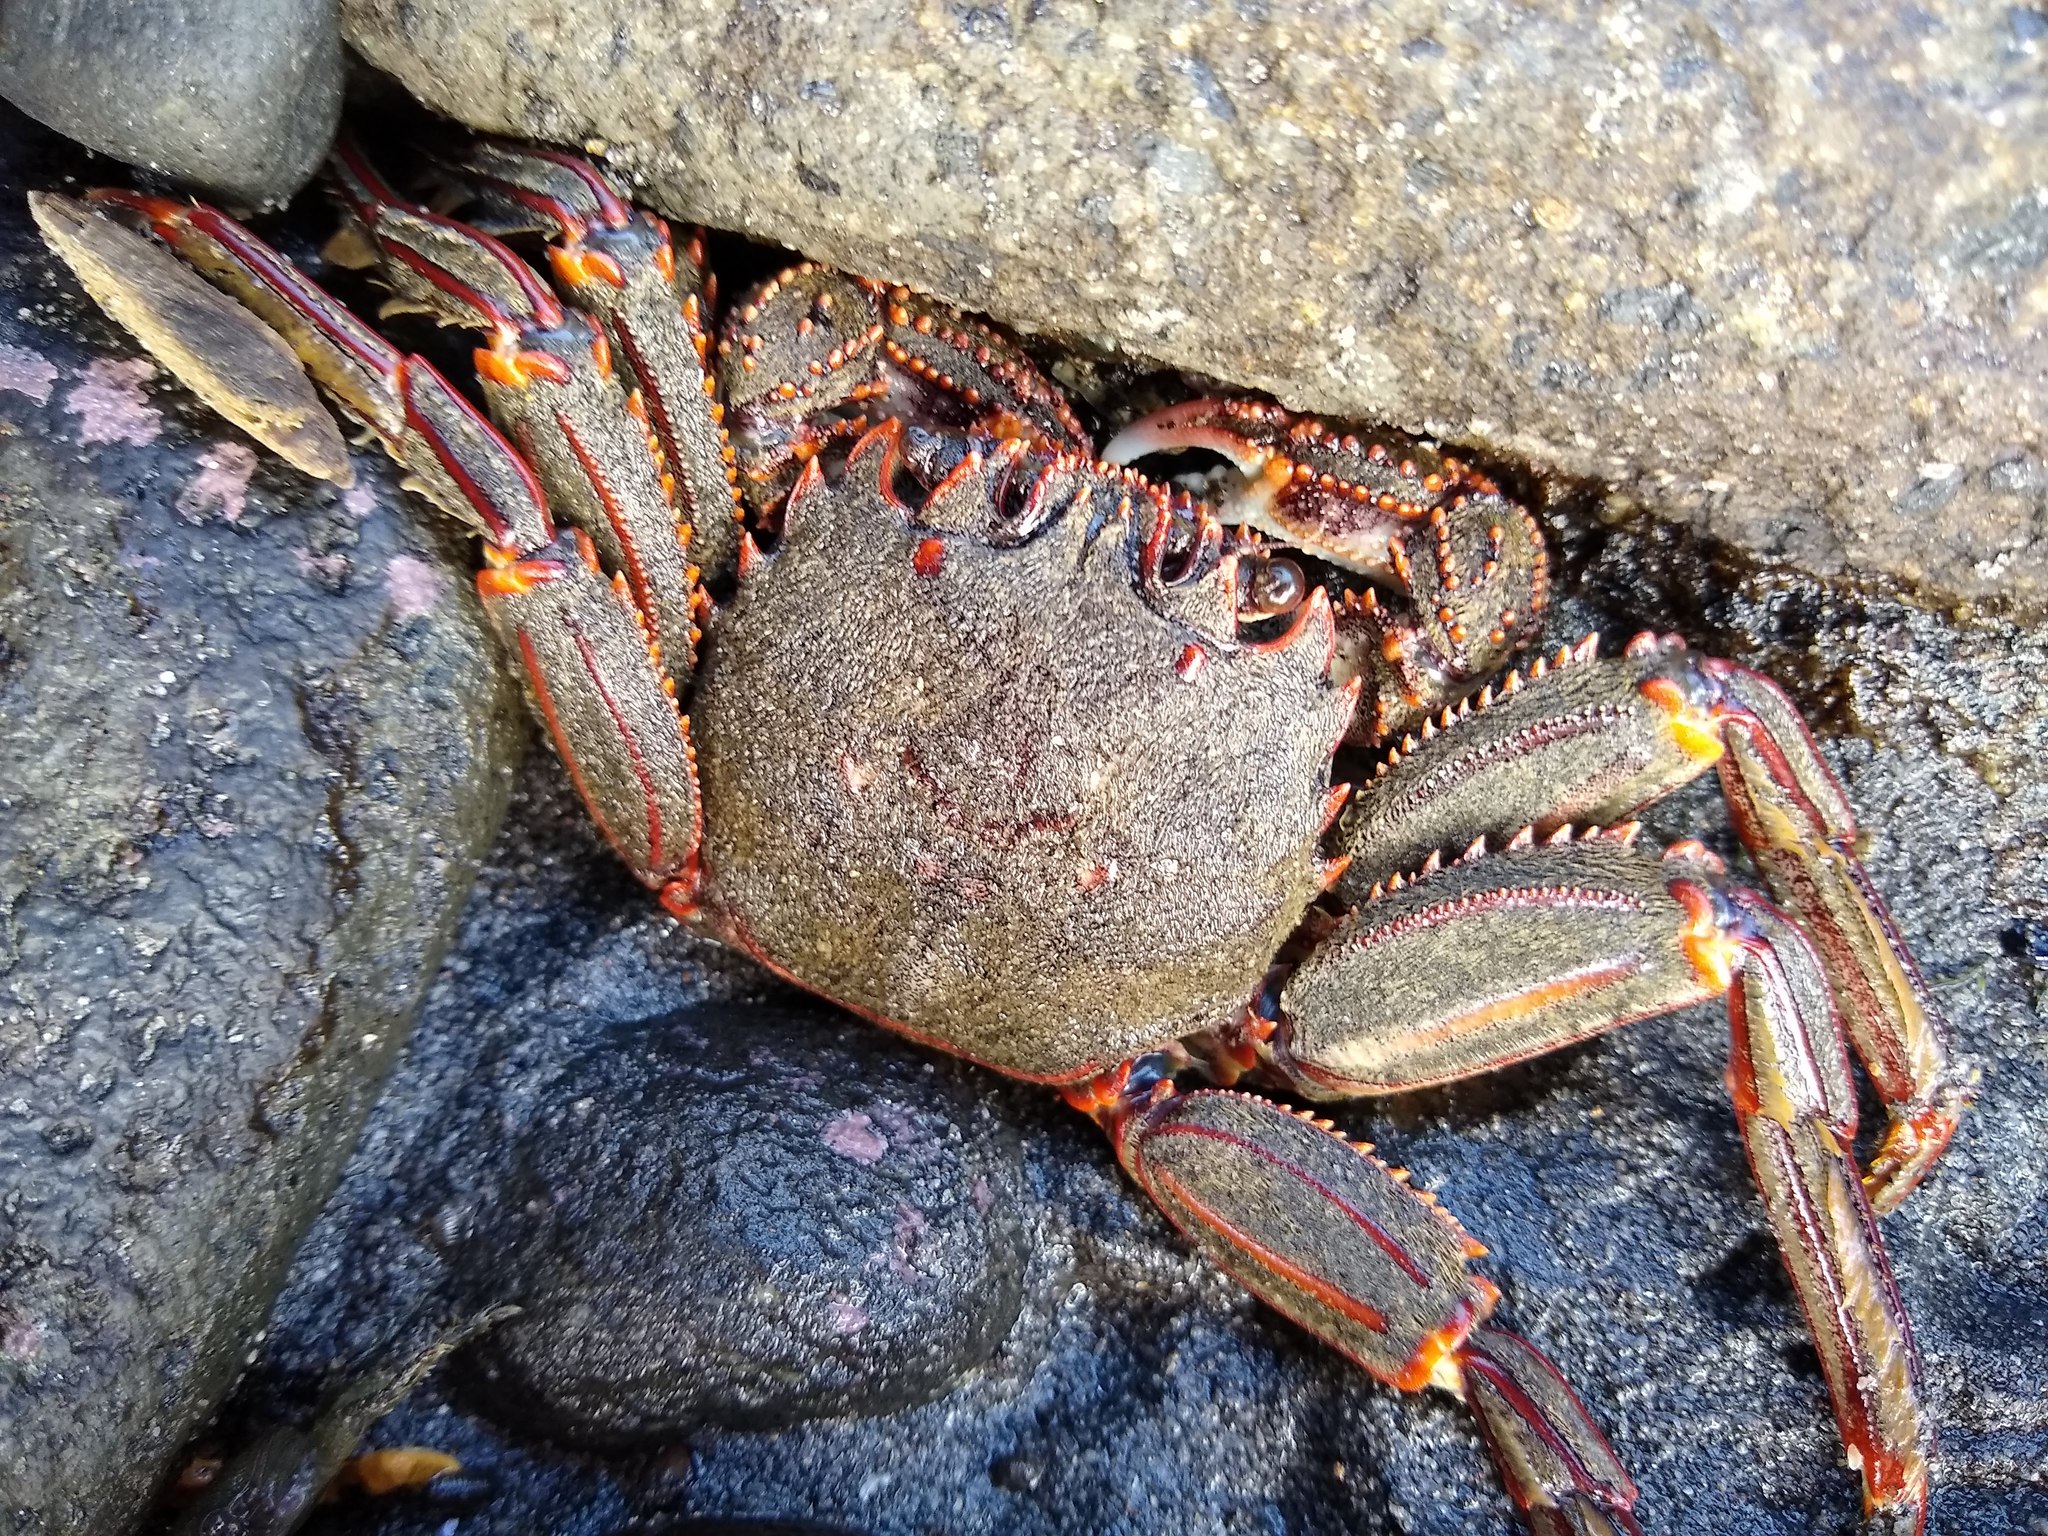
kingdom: Animalia
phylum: Arthropoda
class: Malacostraca
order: Decapoda
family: Plagusiidae
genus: Guinusia
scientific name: Guinusia chabrus
